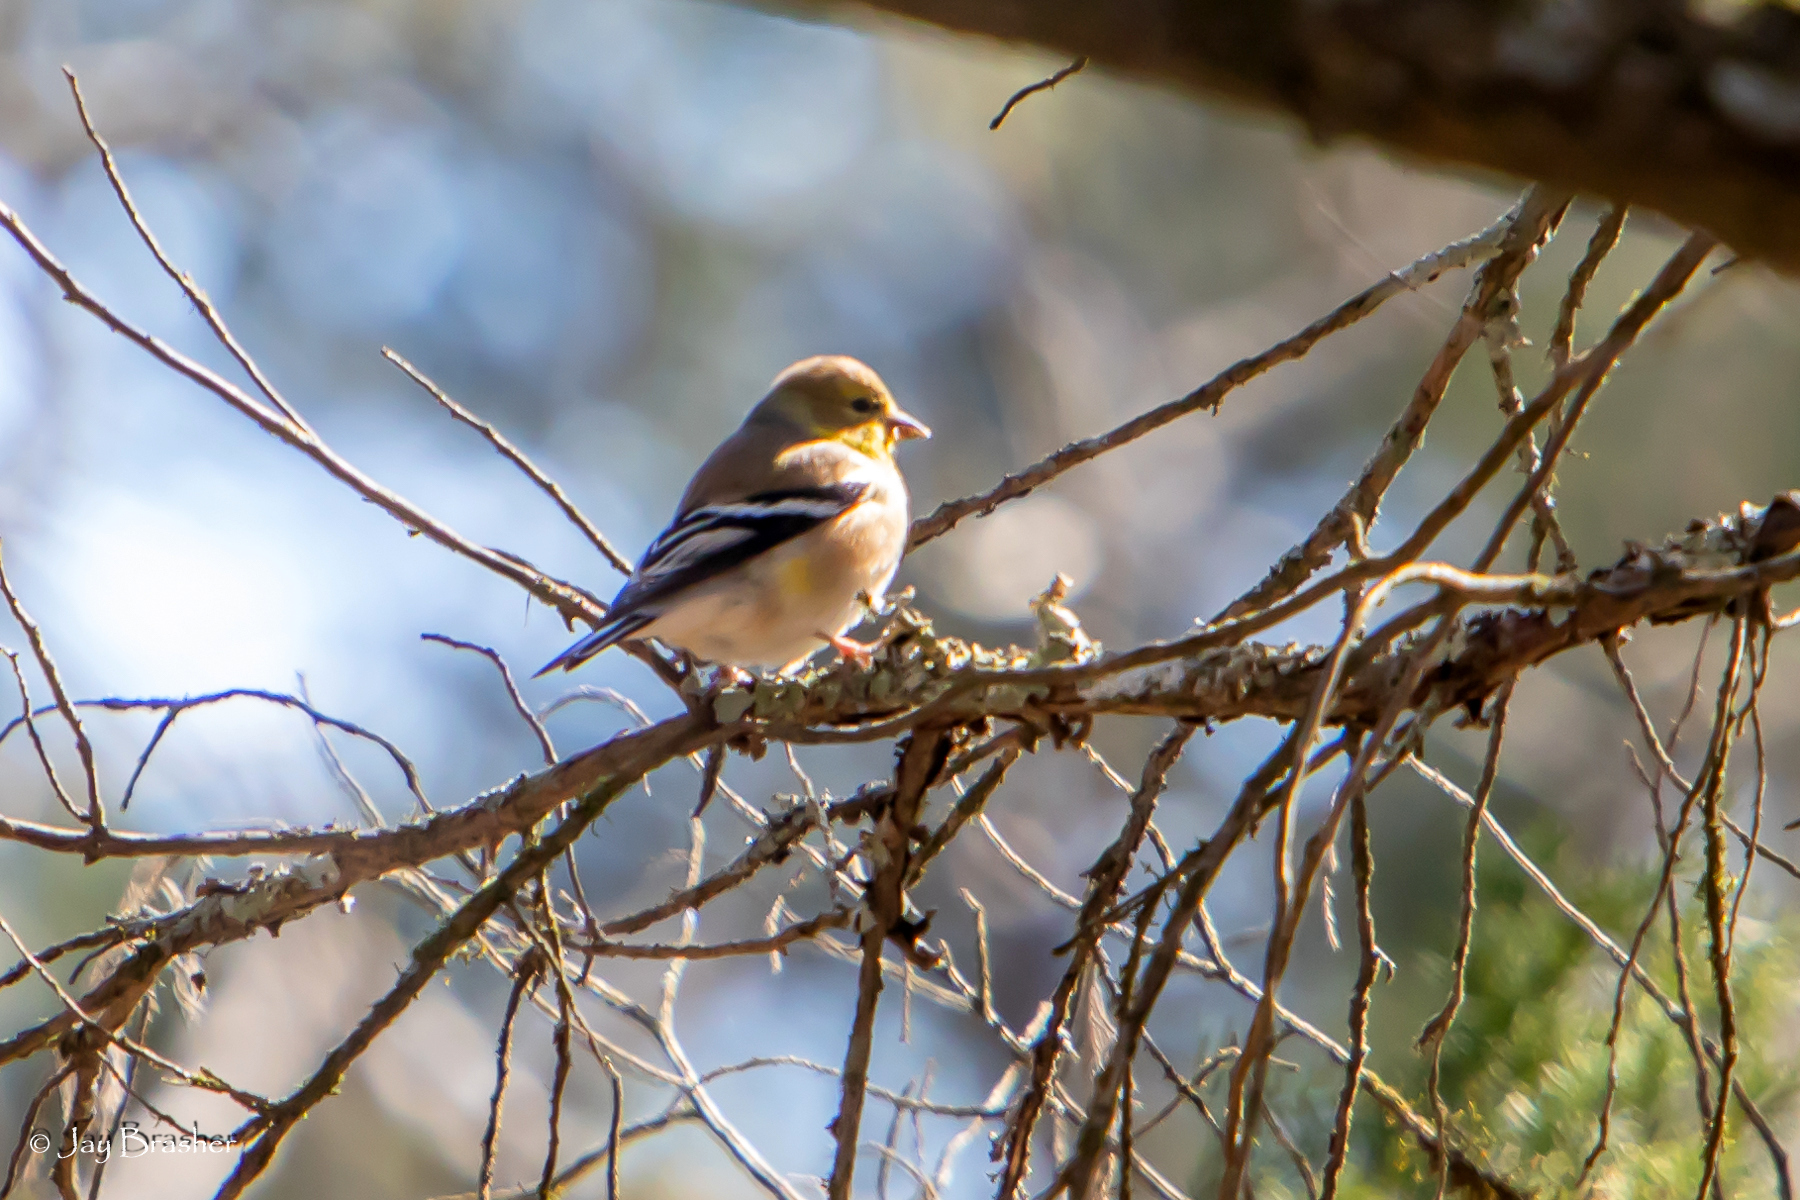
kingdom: Animalia
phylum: Chordata
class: Aves
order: Passeriformes
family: Fringillidae
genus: Spinus
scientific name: Spinus tristis
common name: American goldfinch
